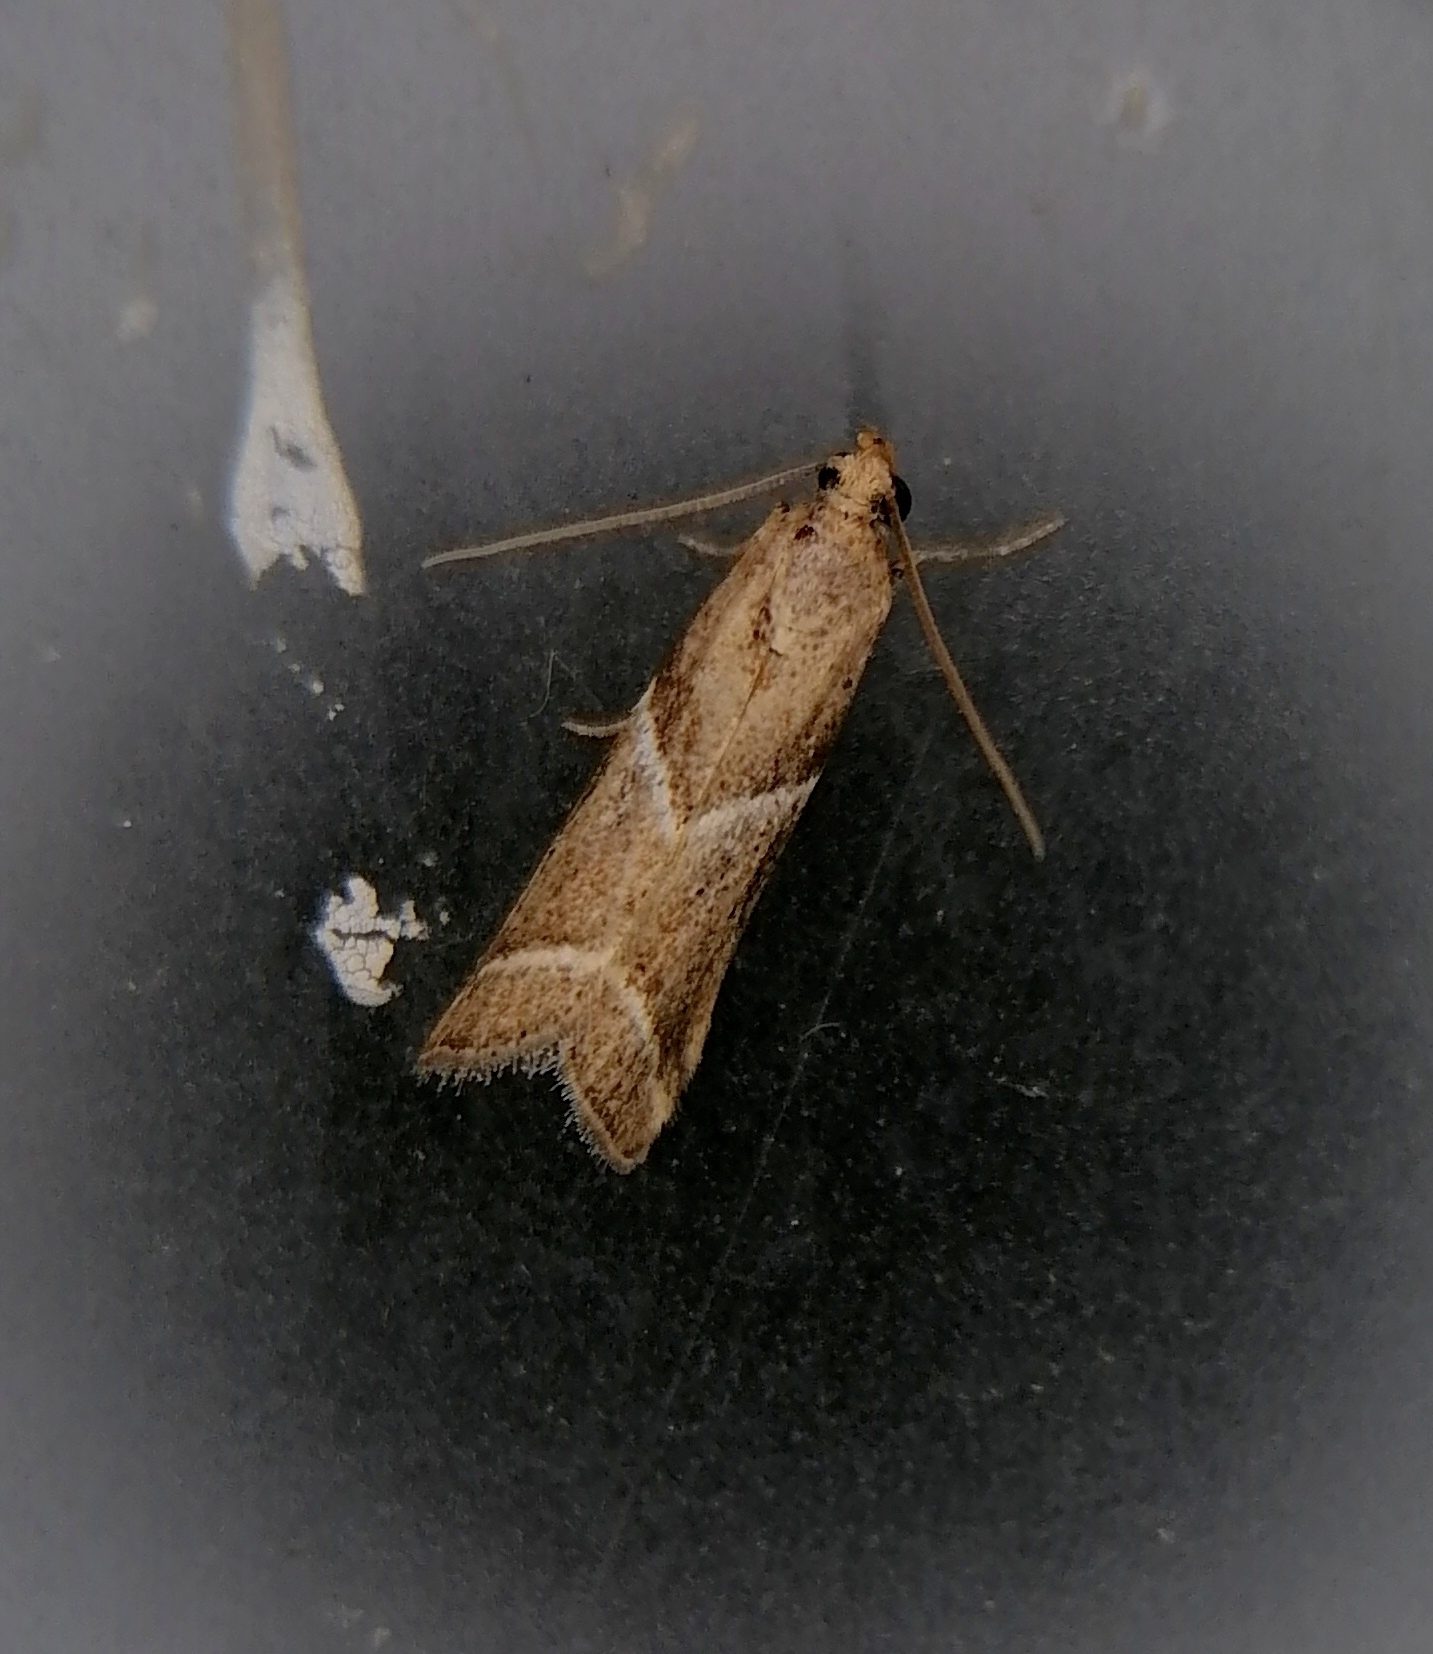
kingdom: Animalia
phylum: Arthropoda
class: Insecta
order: Lepidoptera
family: Pyralidae
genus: Nyctegretis
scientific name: Nyctegretis lineana
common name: Agate knot-horn
